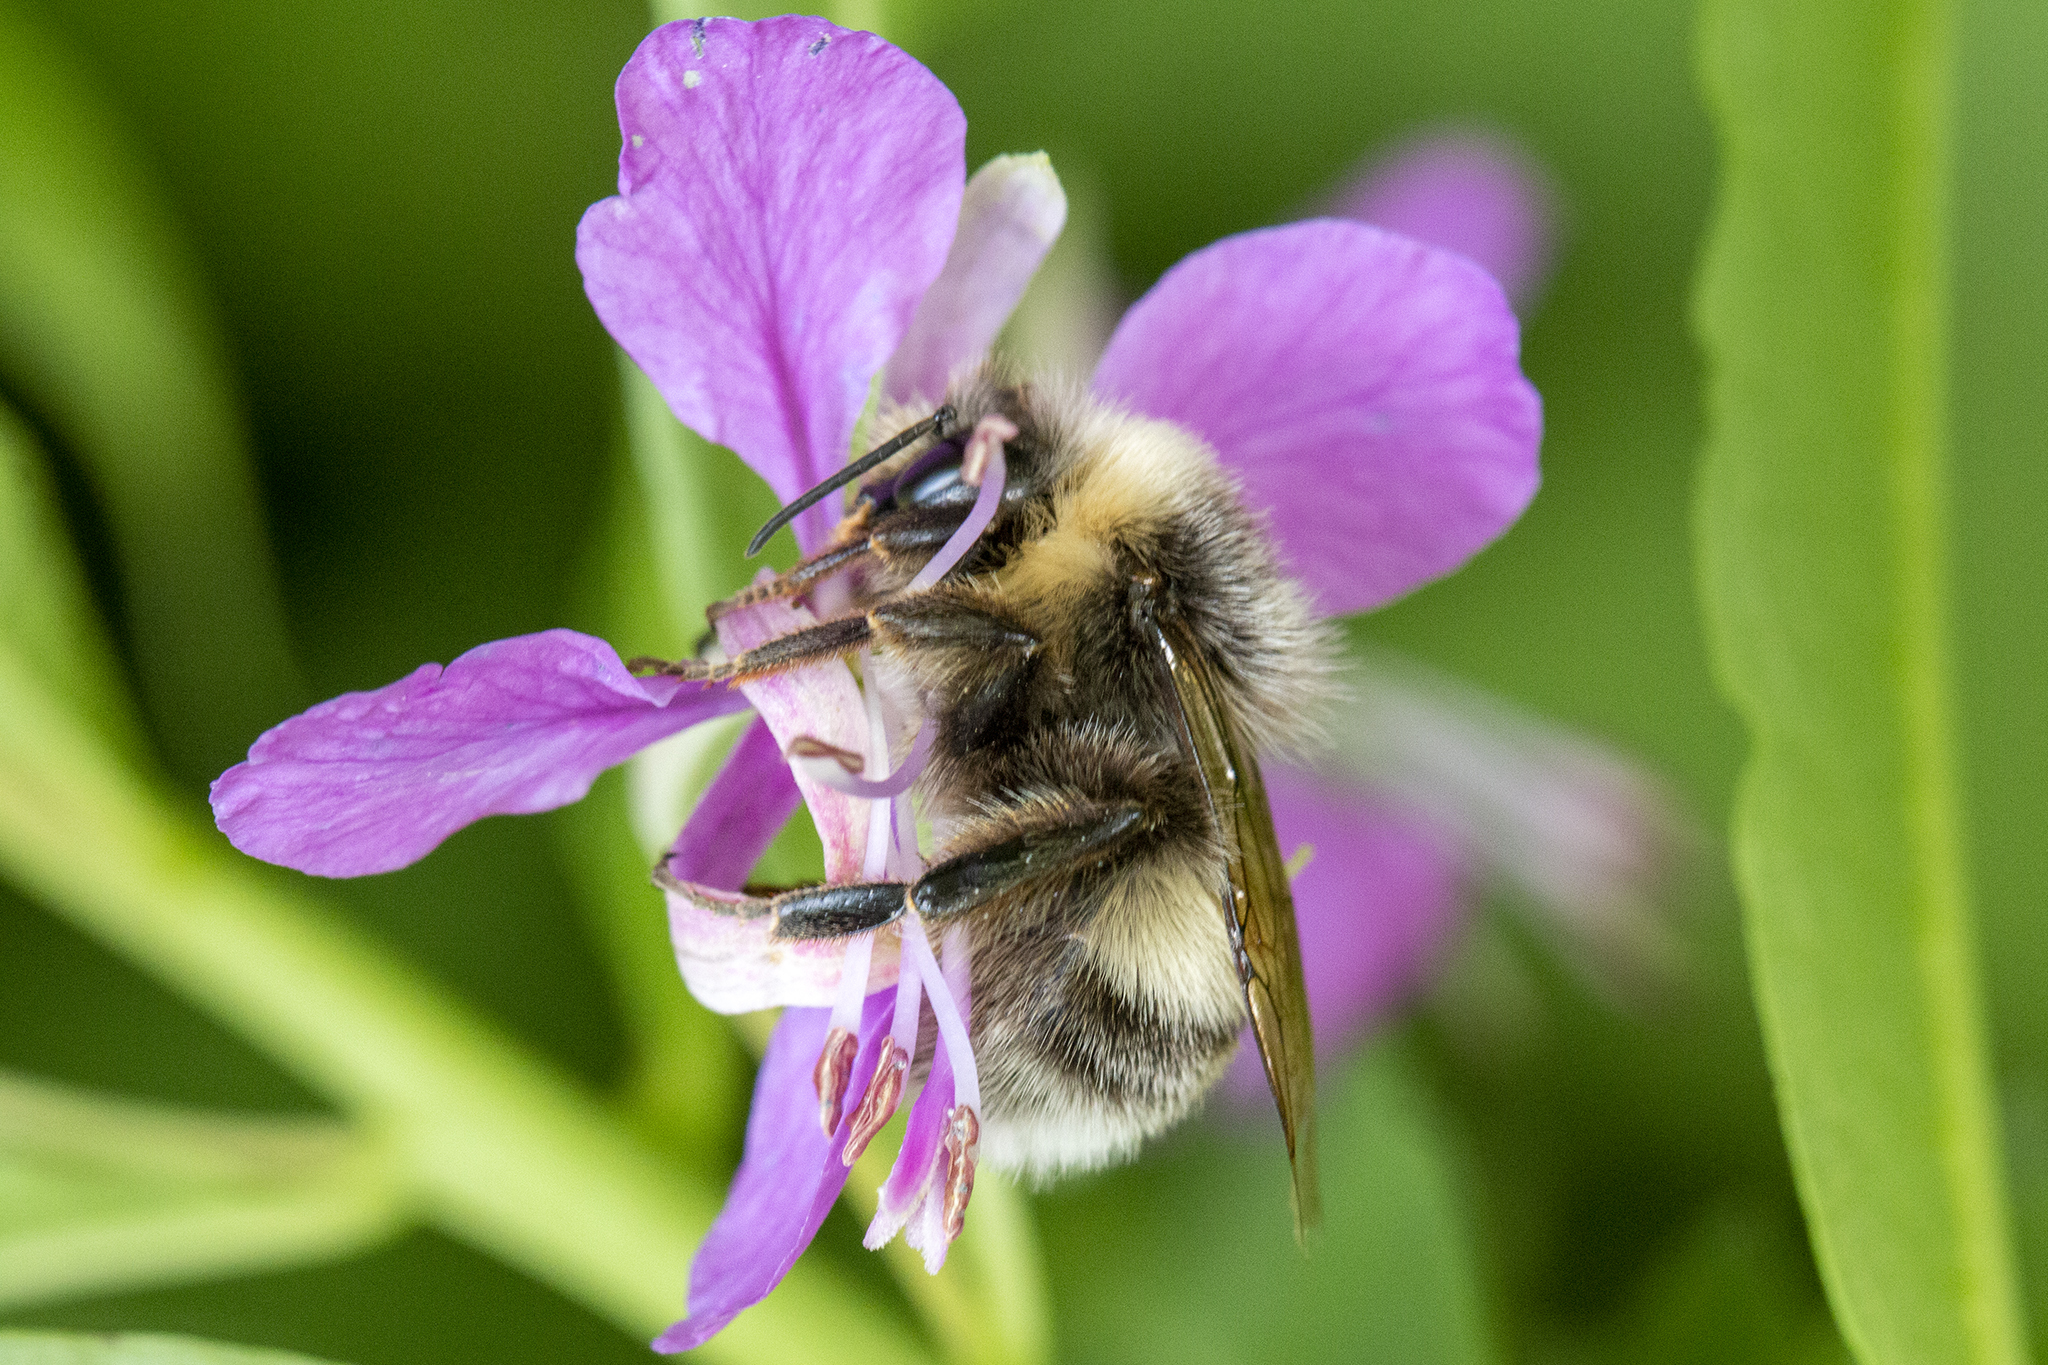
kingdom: Animalia
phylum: Arthropoda
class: Insecta
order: Hymenoptera
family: Apidae
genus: Bombus
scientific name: Bombus lucorum
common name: White-tailed bumblebee
